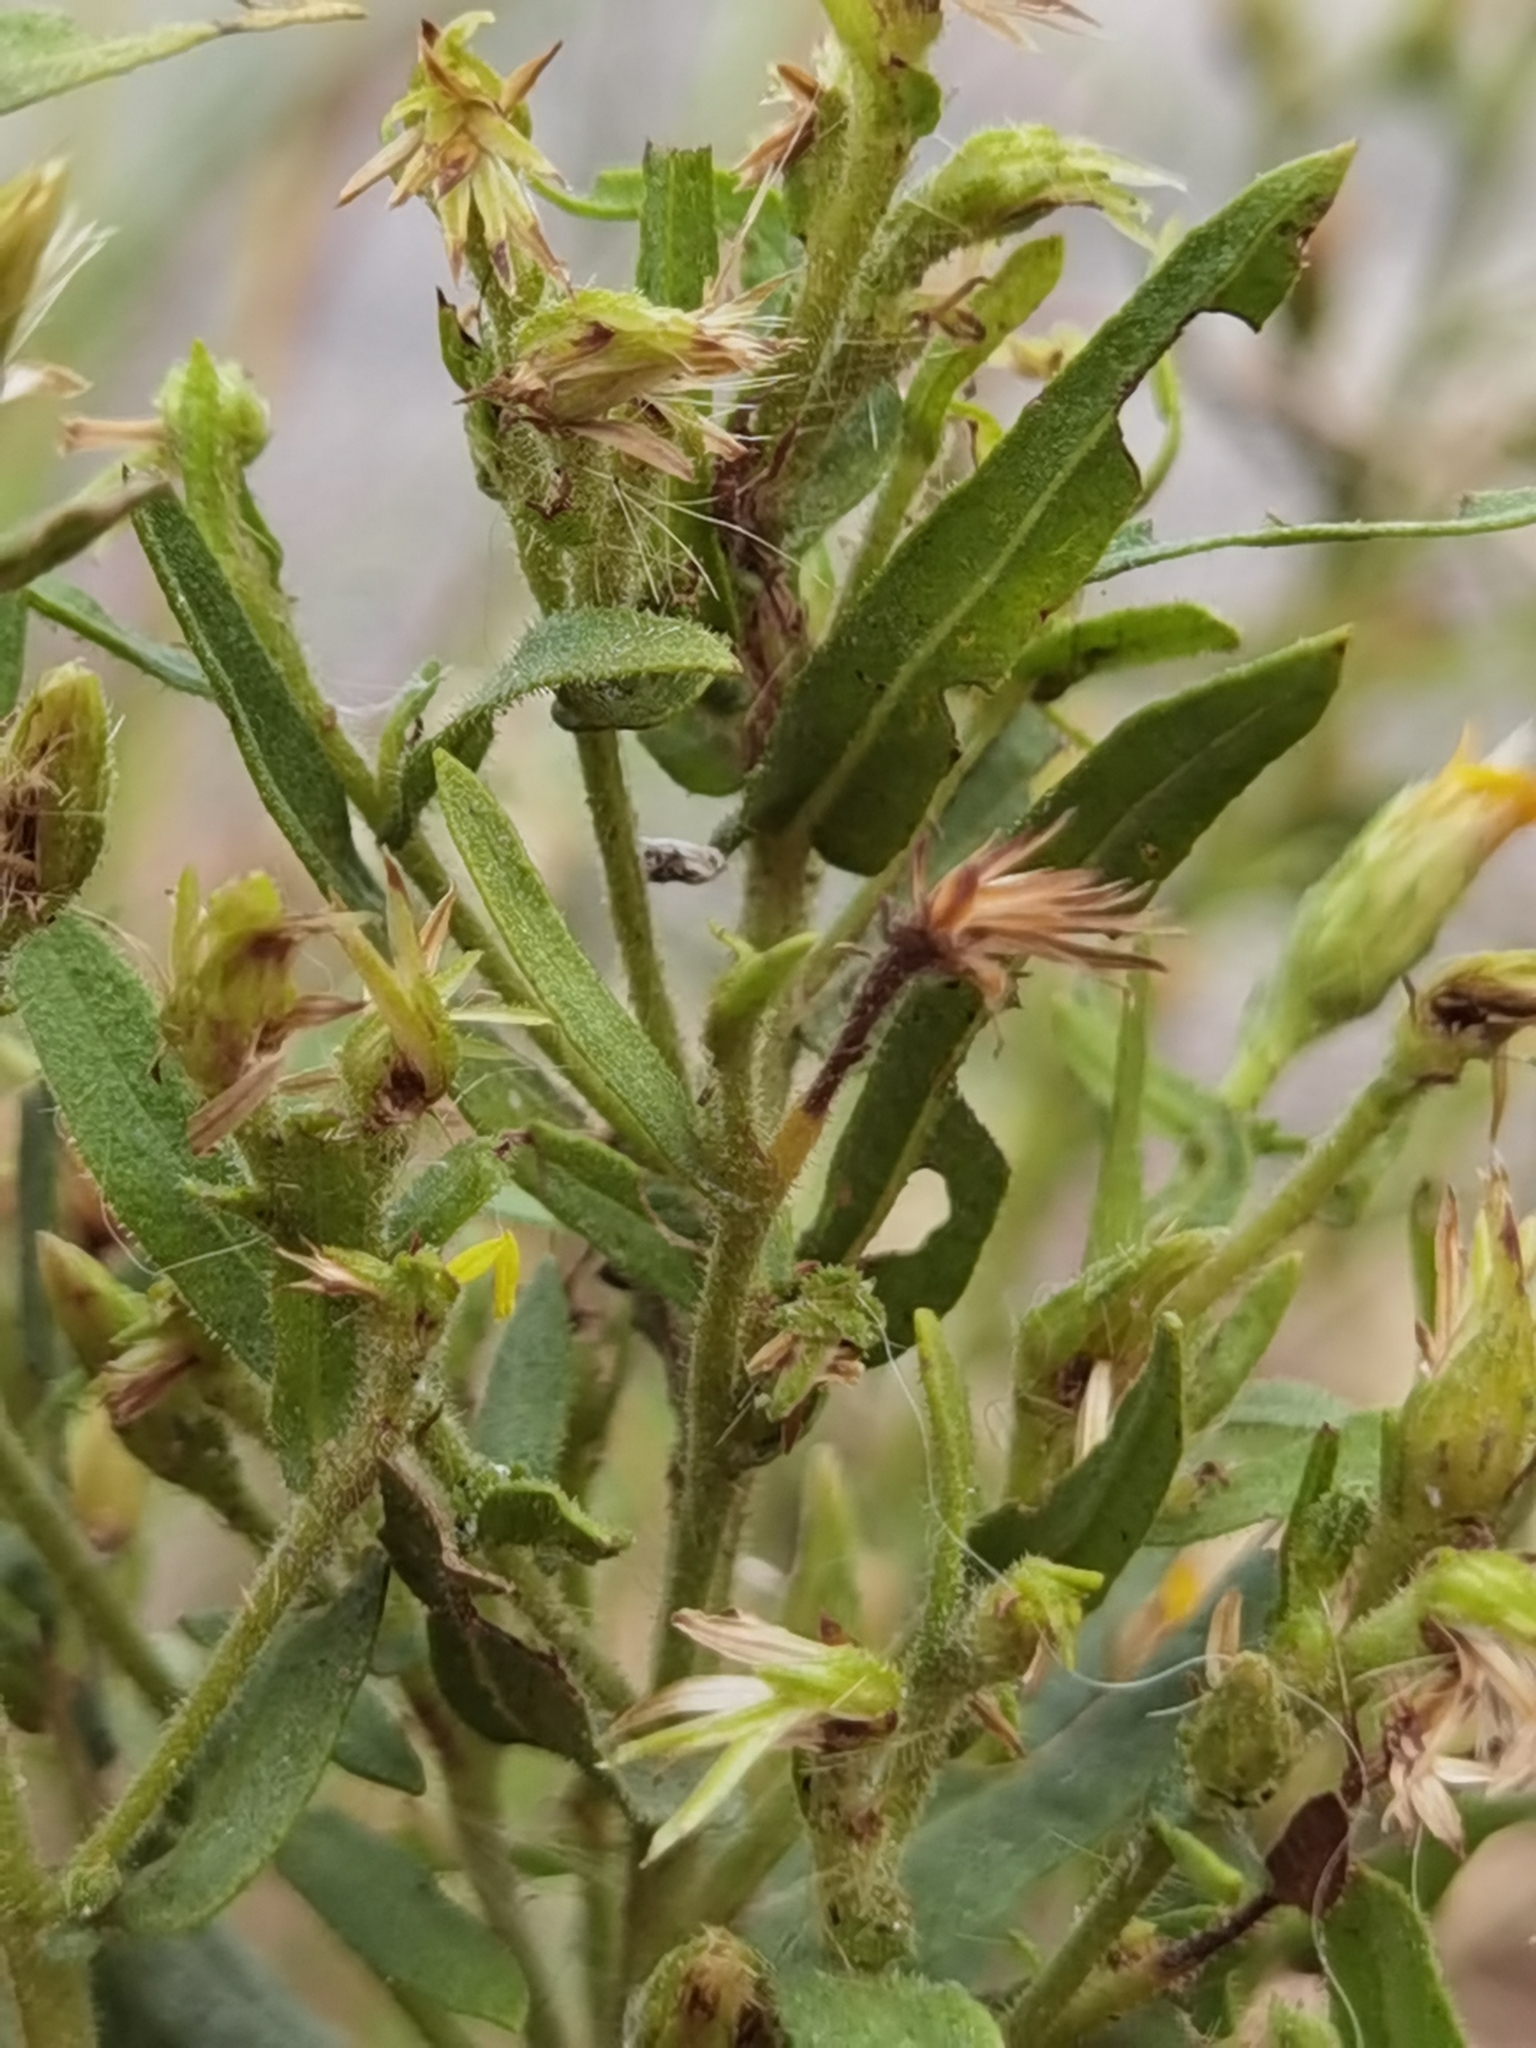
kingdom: Plantae
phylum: Tracheophyta
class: Magnoliopsida
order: Asterales
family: Asteraceae
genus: Dittrichia
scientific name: Dittrichia viscosa
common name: Woody fleabane
